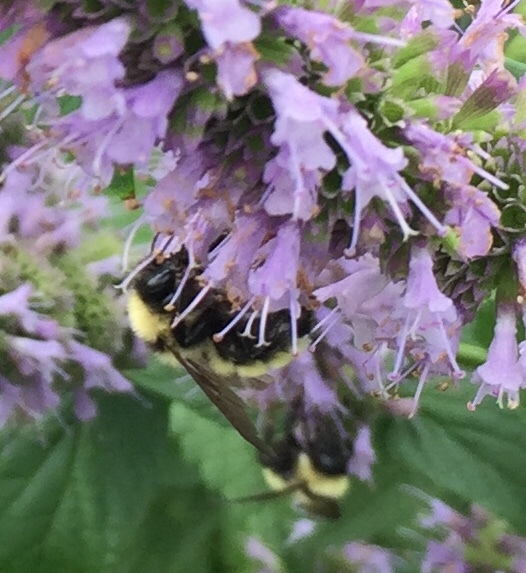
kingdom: Animalia
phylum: Arthropoda
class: Insecta
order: Hymenoptera
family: Apidae
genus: Bombus
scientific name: Bombus fervidus
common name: Yellow bumble bee
